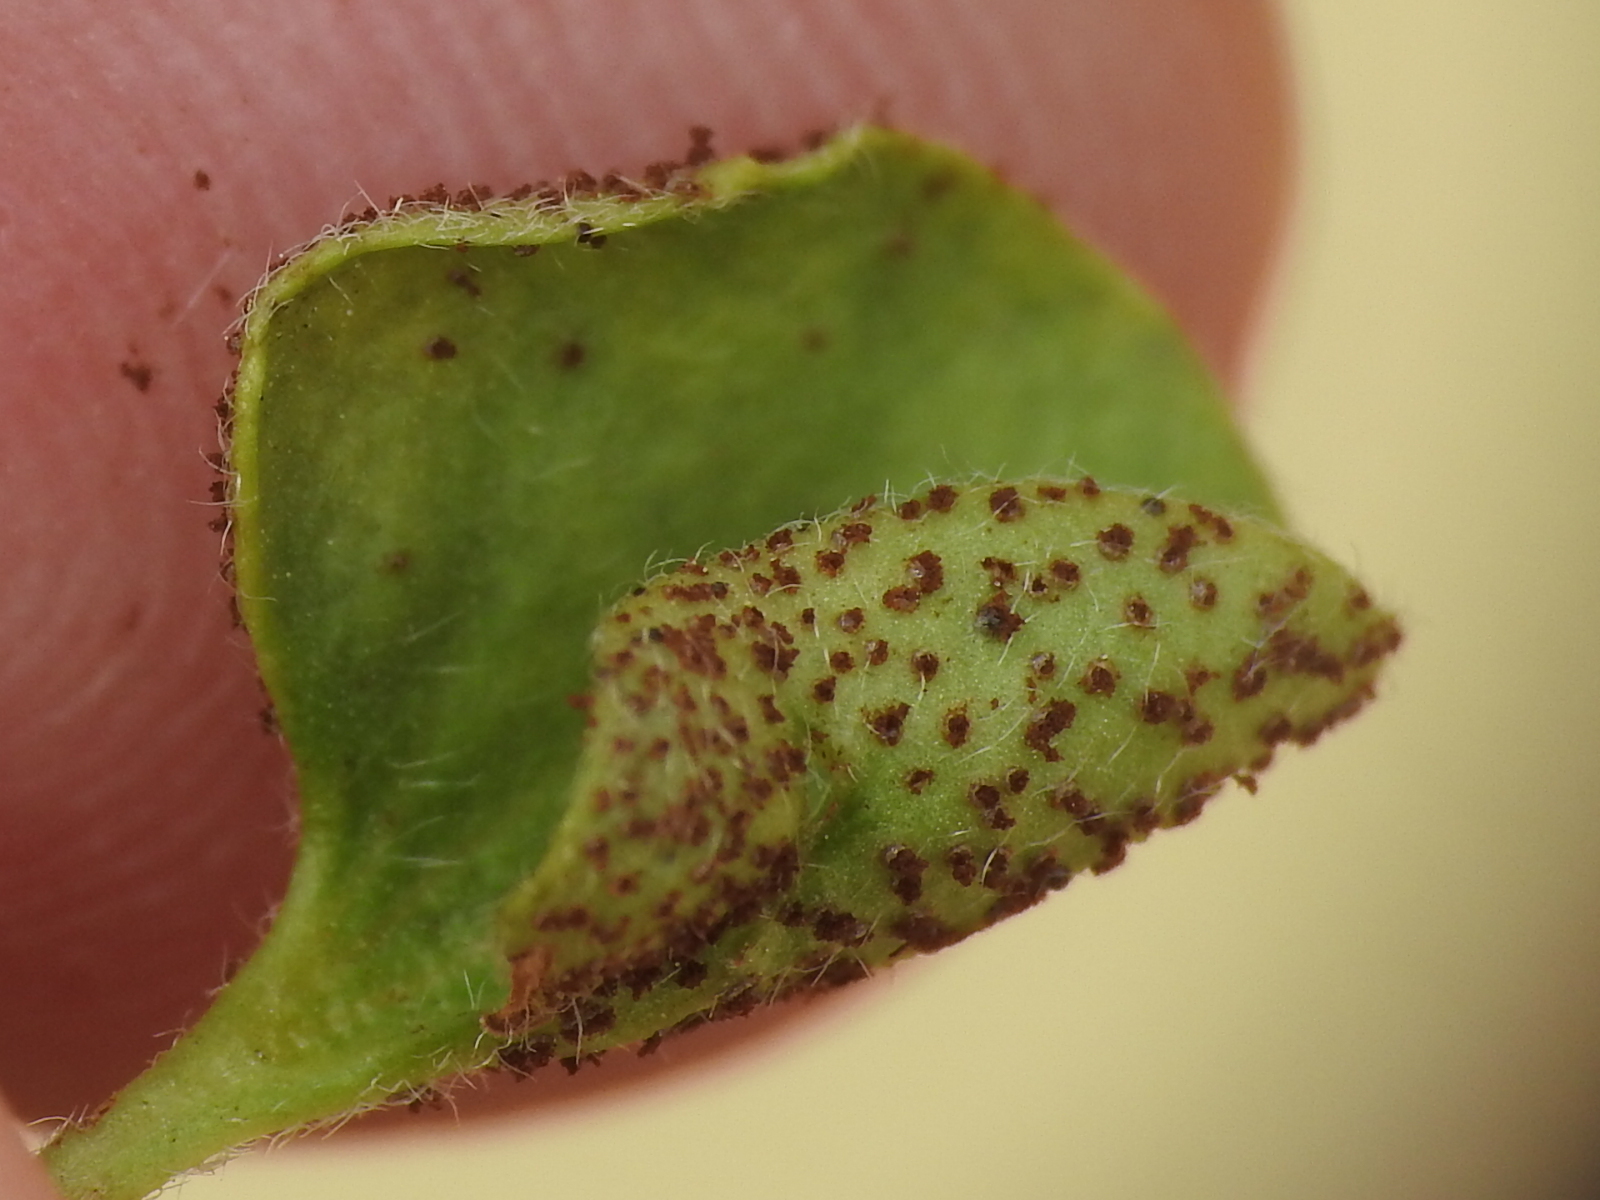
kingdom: Fungi
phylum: Basidiomycota
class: Pucciniomycetes
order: Pucciniales
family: Pucciniaceae
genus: Puccinia
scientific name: Puccinia dichondrae
